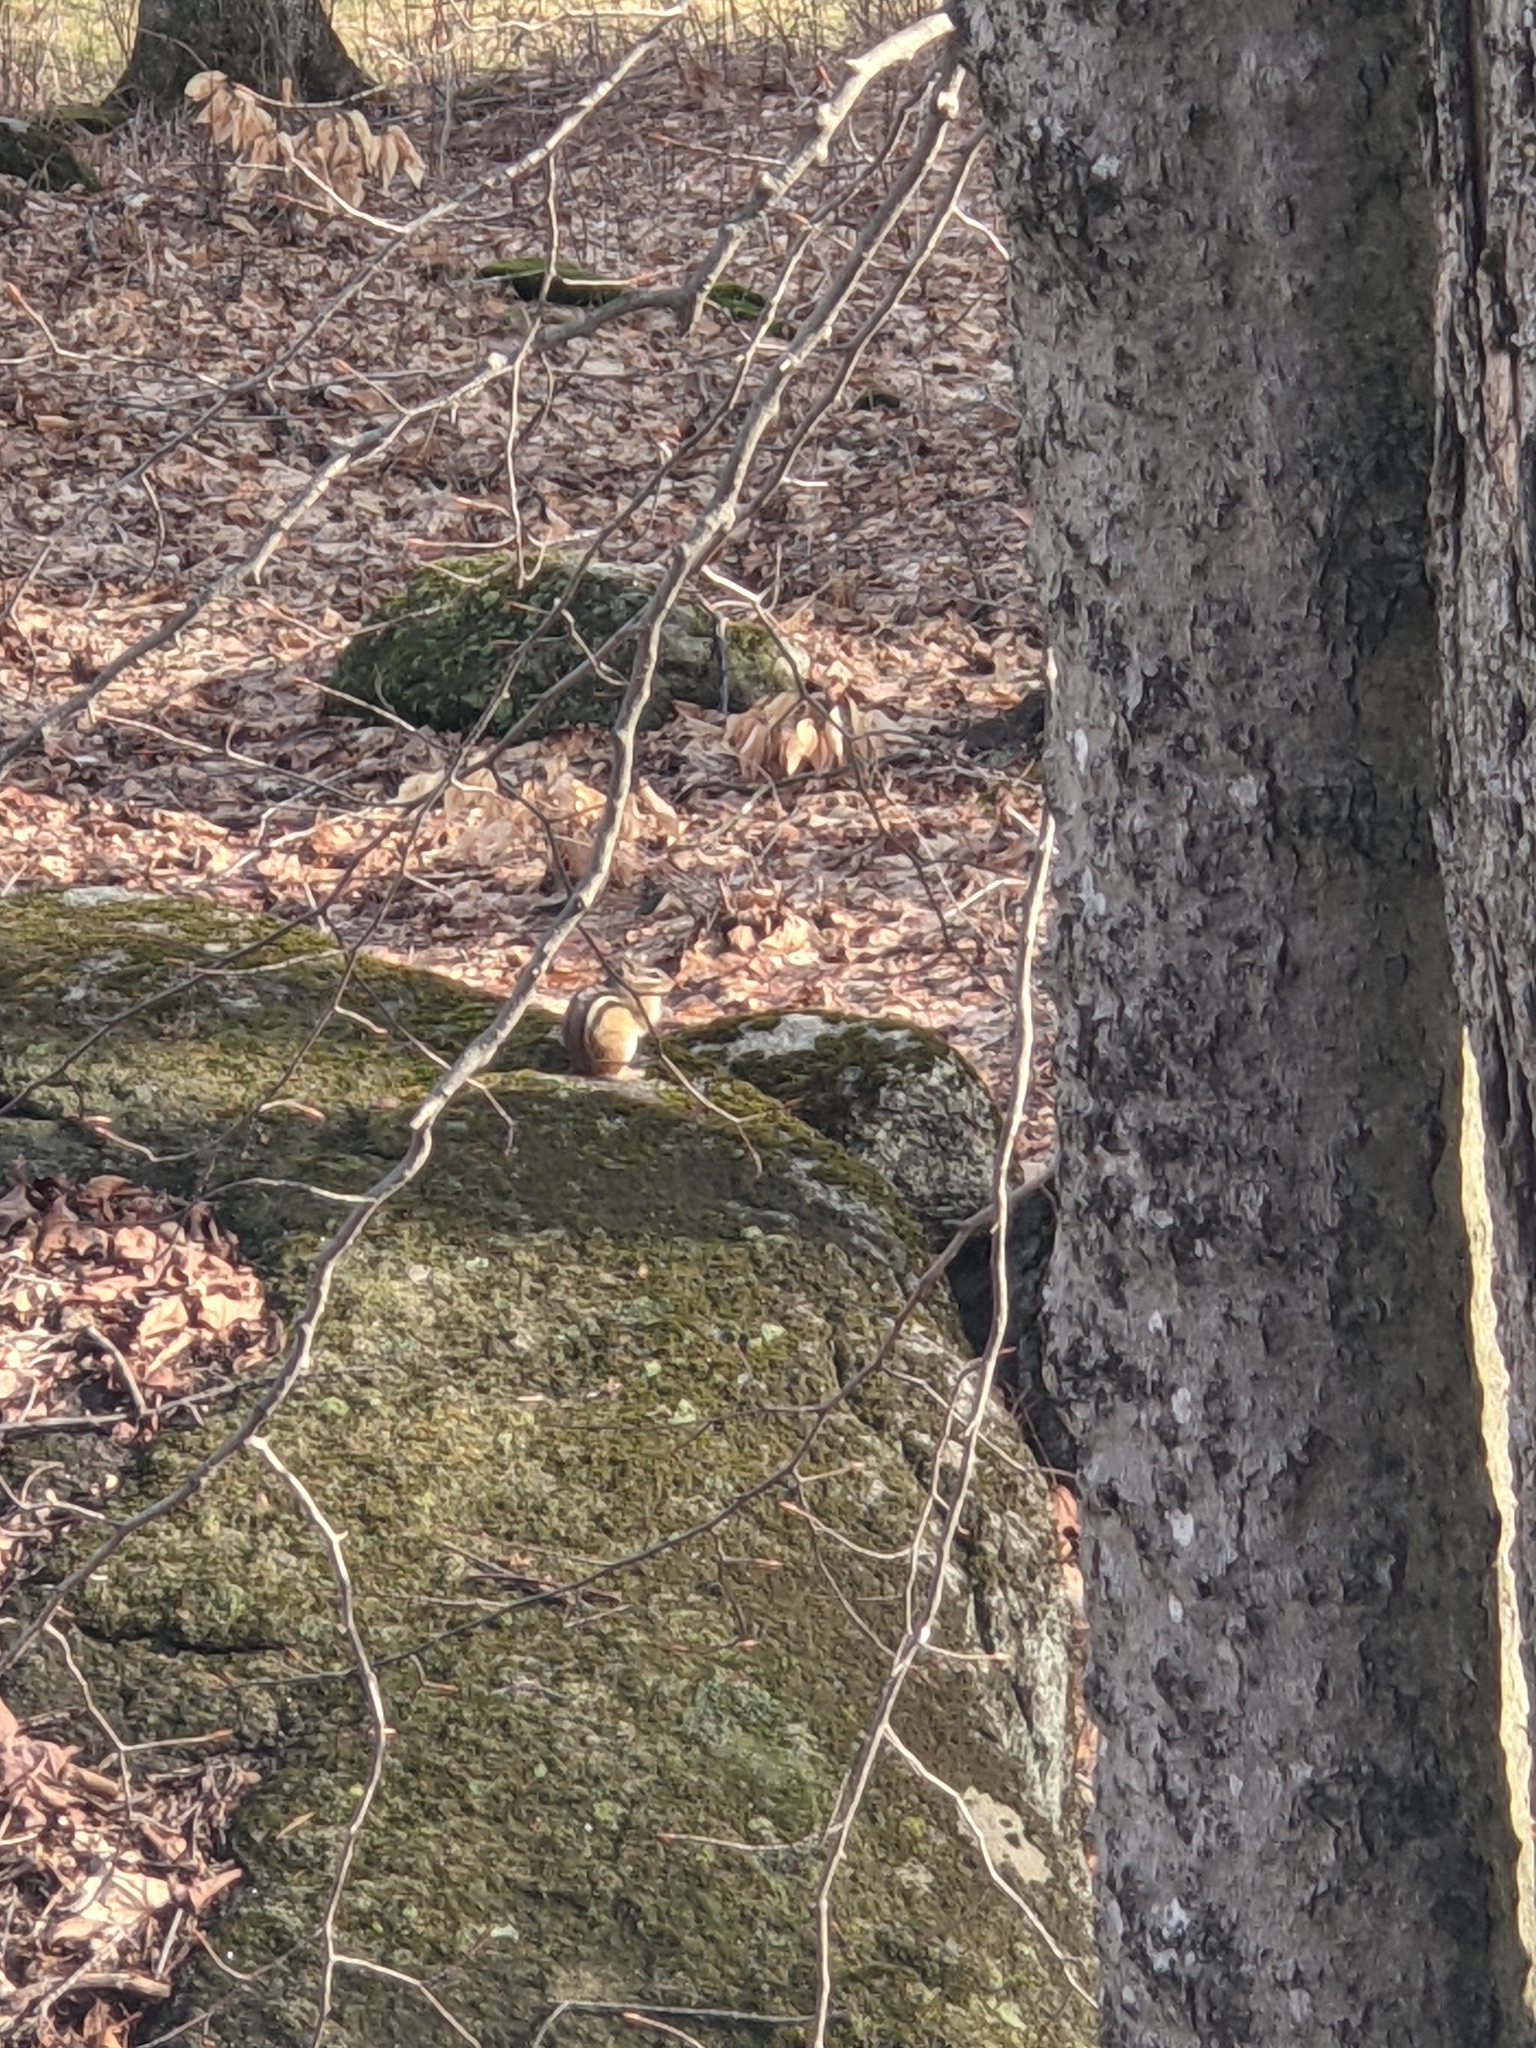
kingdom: Animalia
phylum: Chordata
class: Mammalia
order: Rodentia
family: Sciuridae
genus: Tamias
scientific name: Tamias striatus
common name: Eastern chipmunk
